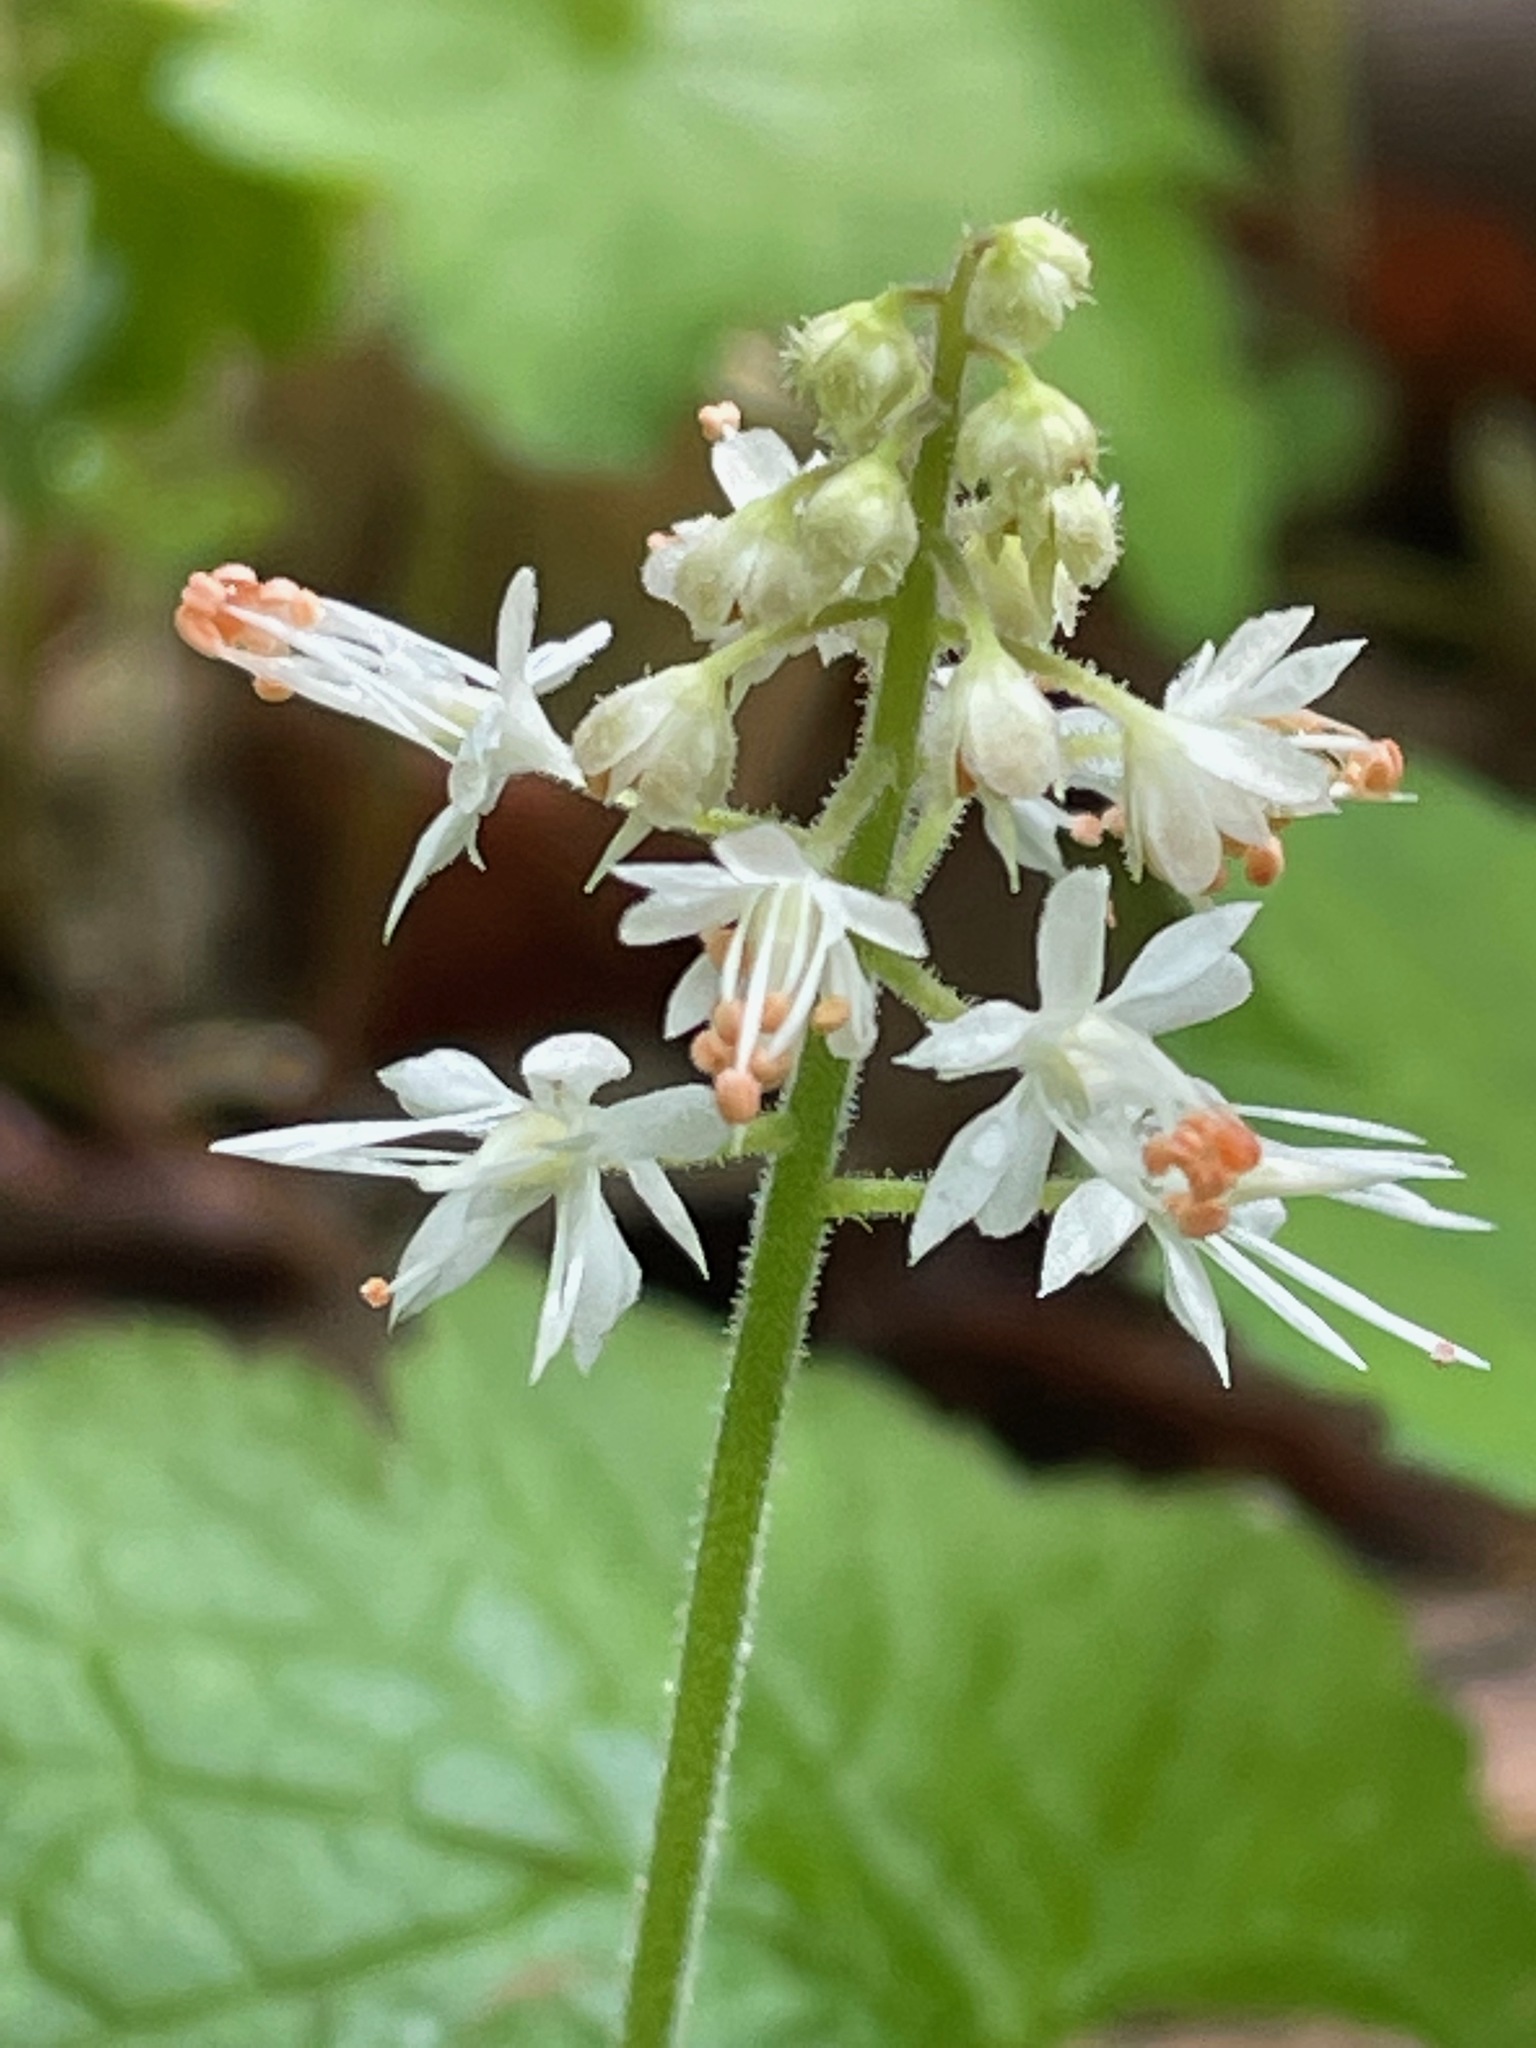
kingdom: Plantae
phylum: Tracheophyta
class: Magnoliopsida
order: Saxifragales
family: Saxifragaceae
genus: Tiarella
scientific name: Tiarella stolonifera
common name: Stoloniferous foamflower
